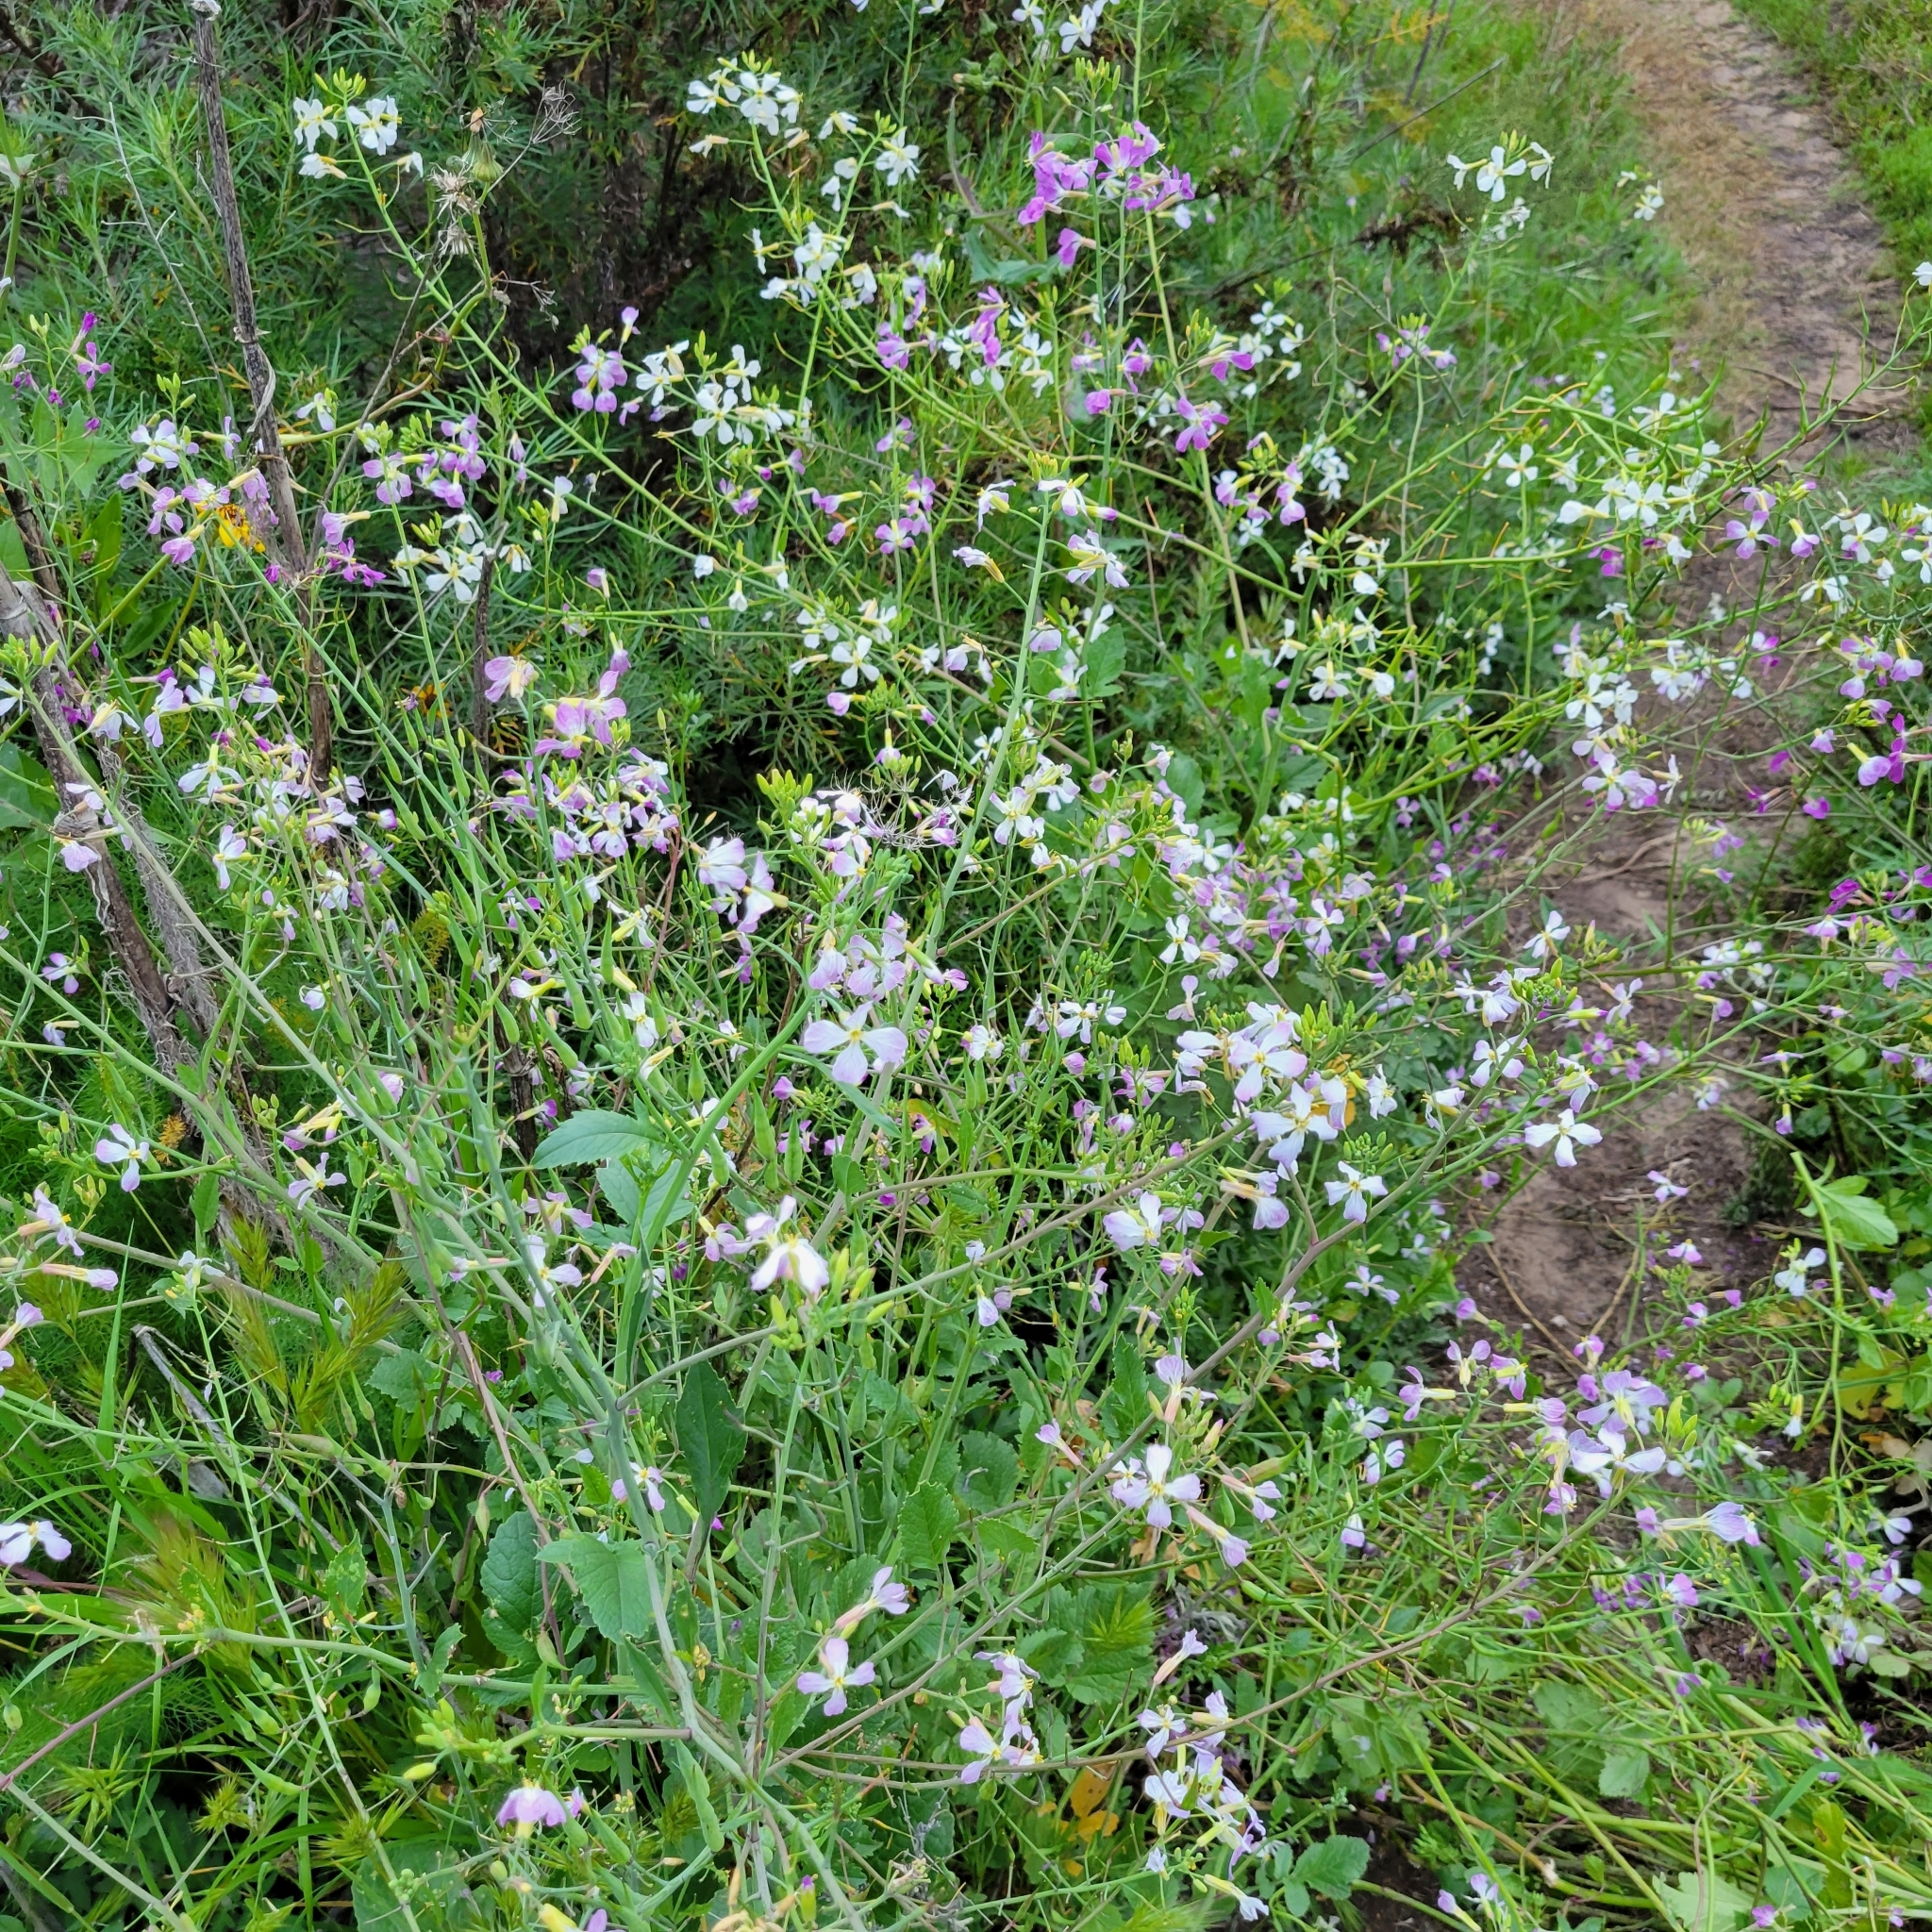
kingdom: Plantae
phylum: Tracheophyta
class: Magnoliopsida
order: Brassicales
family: Brassicaceae
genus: Raphanus
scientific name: Raphanus sativus
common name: Cultivated radish
